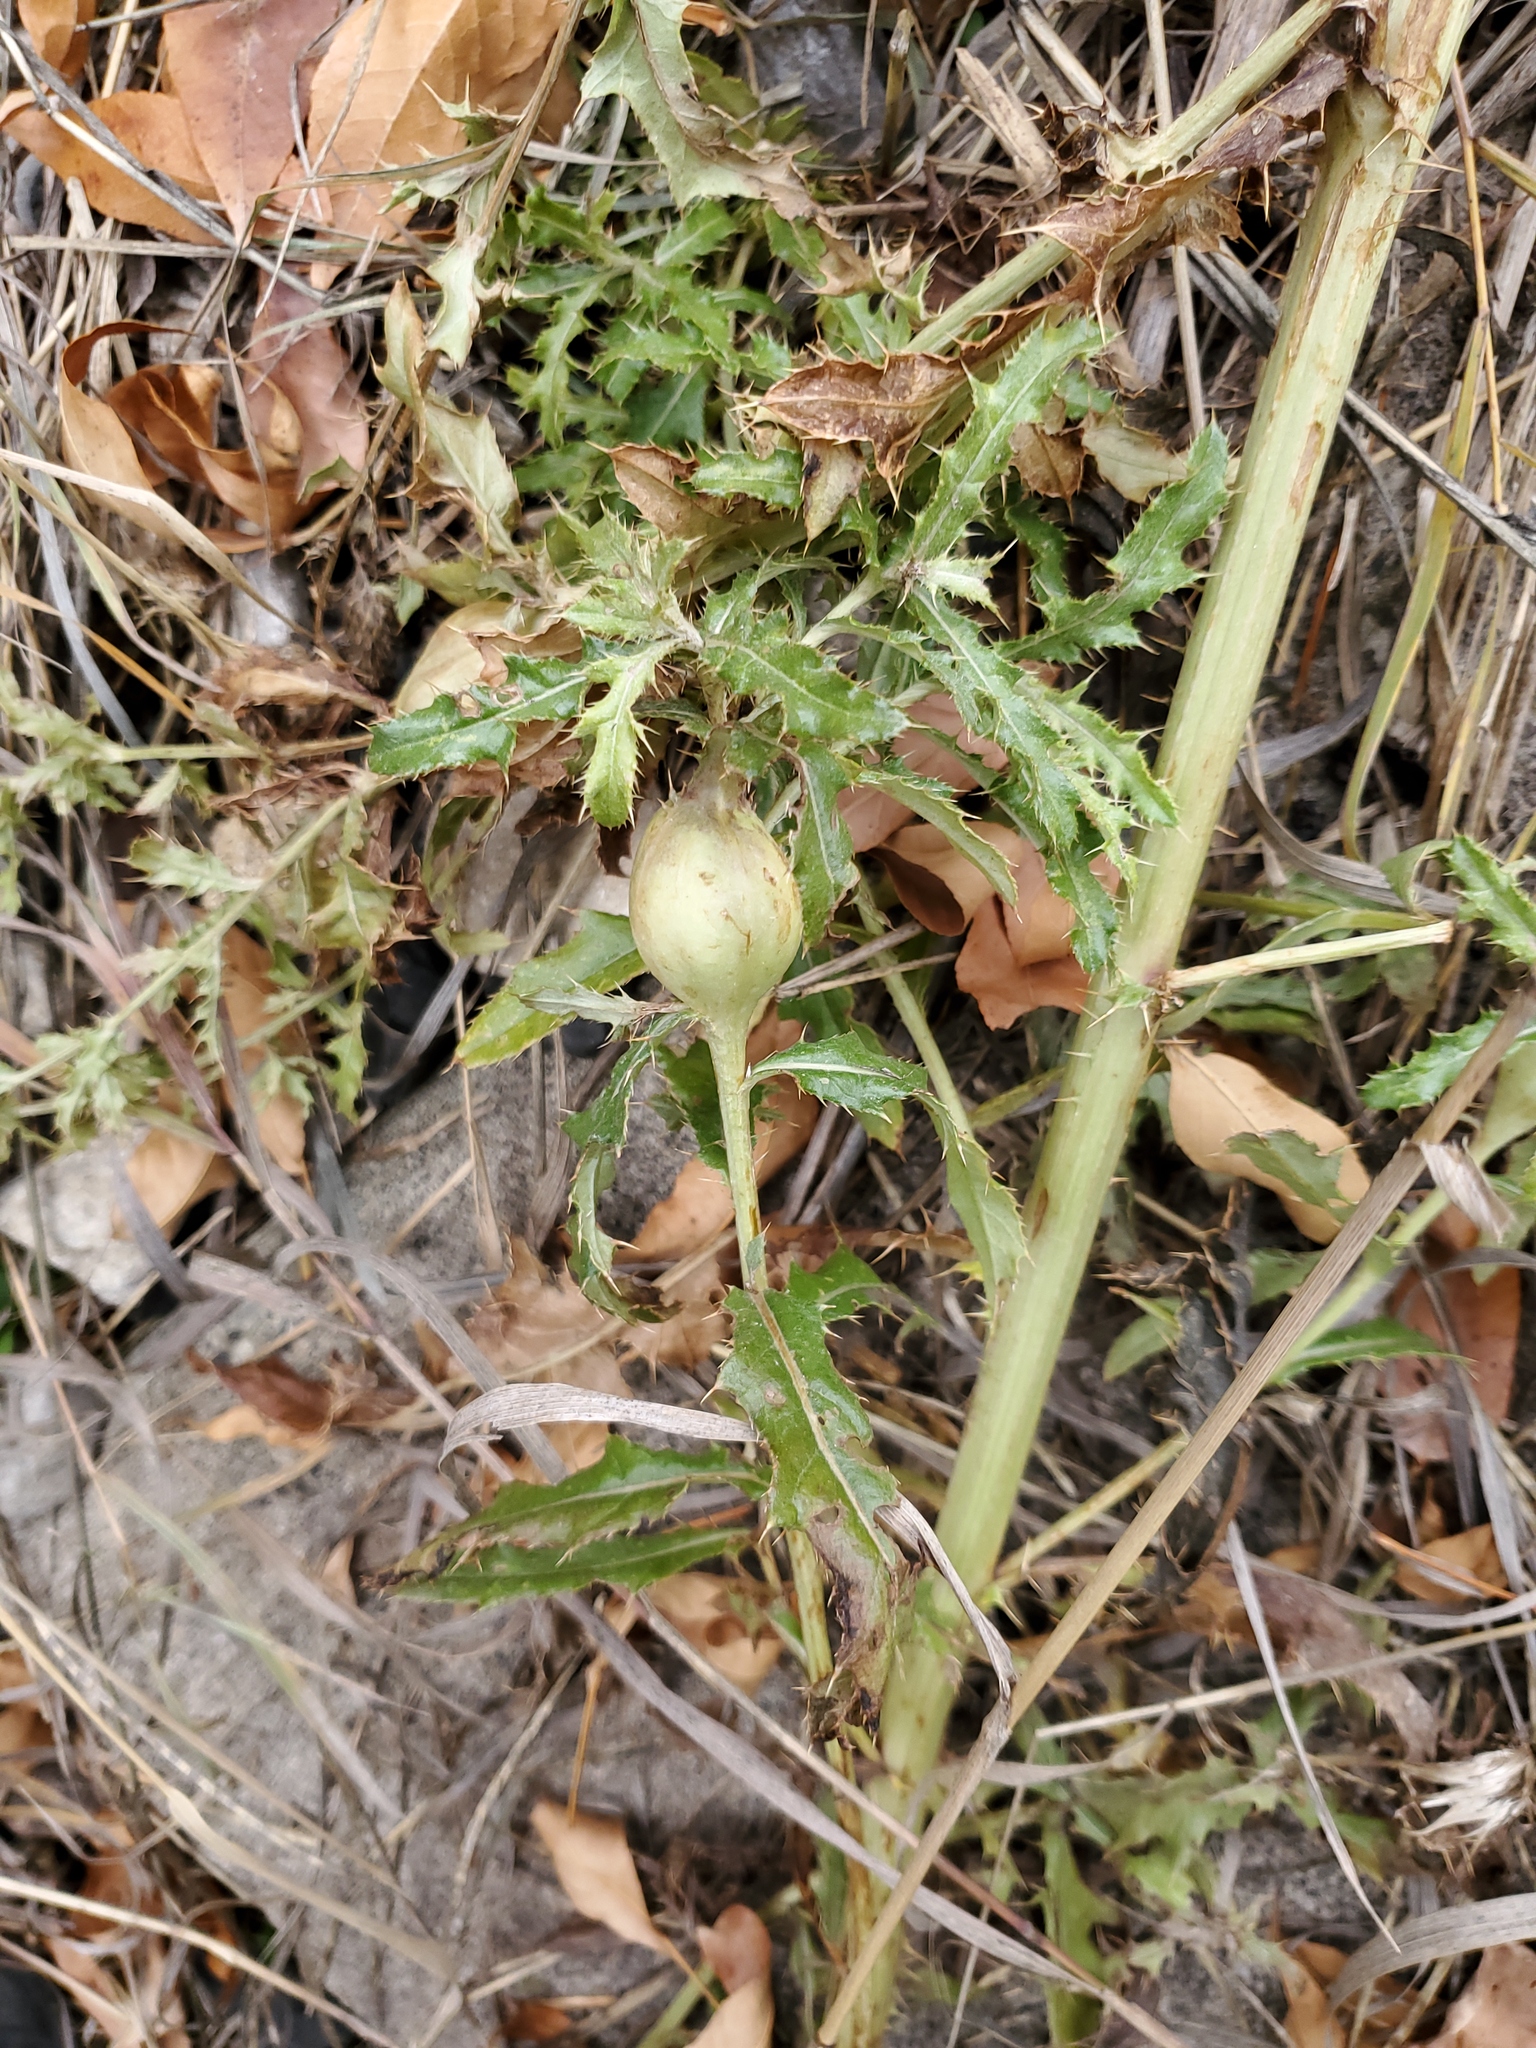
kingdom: Animalia
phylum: Arthropoda
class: Insecta
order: Diptera
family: Tephritidae
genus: Urophora
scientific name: Urophora cardui
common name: Fruit fly
